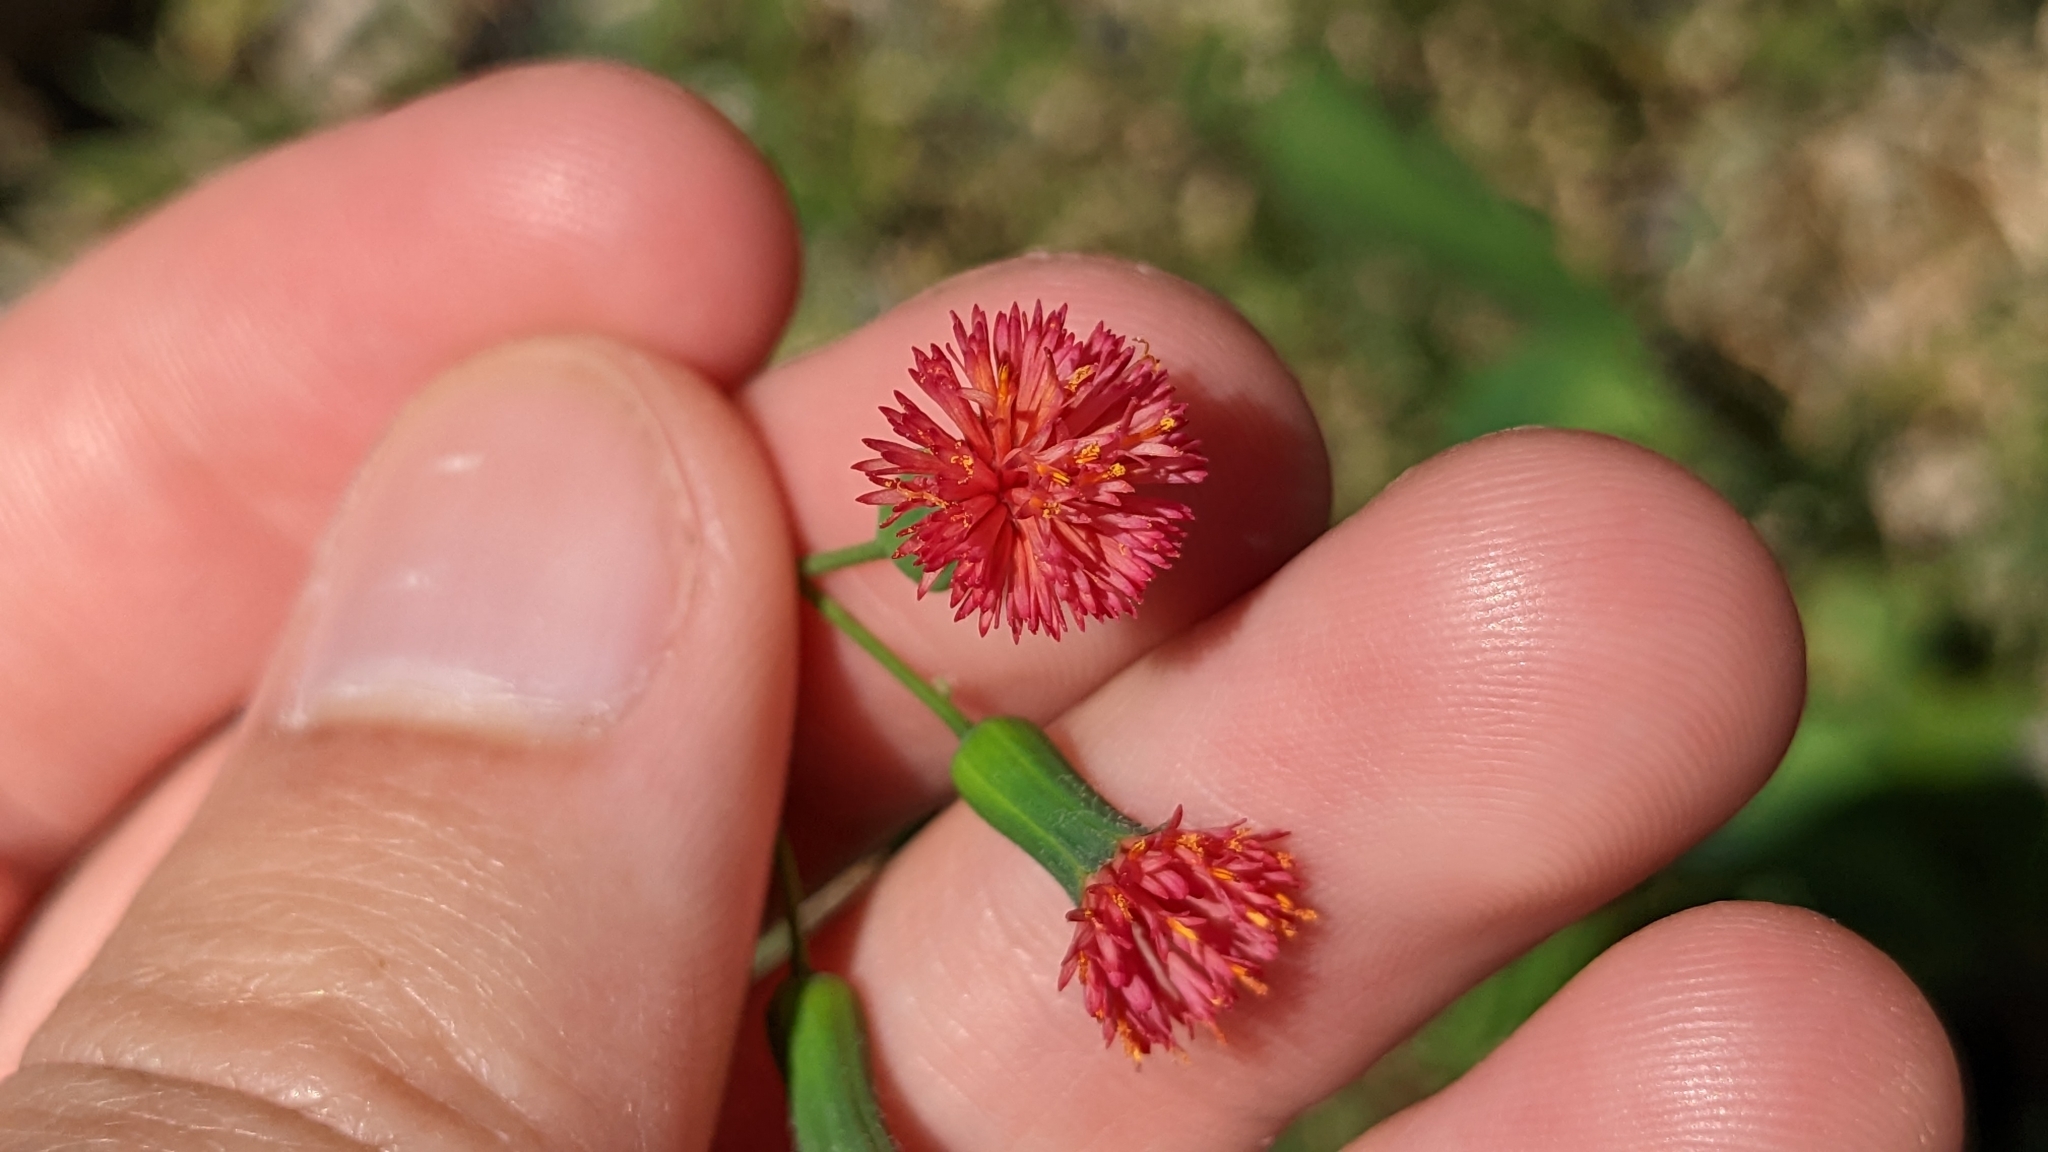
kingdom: Plantae
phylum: Tracheophyta
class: Magnoliopsida
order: Asterales
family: Asteraceae
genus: Emilia
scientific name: Emilia fosbergii
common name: Florida tasselflower
